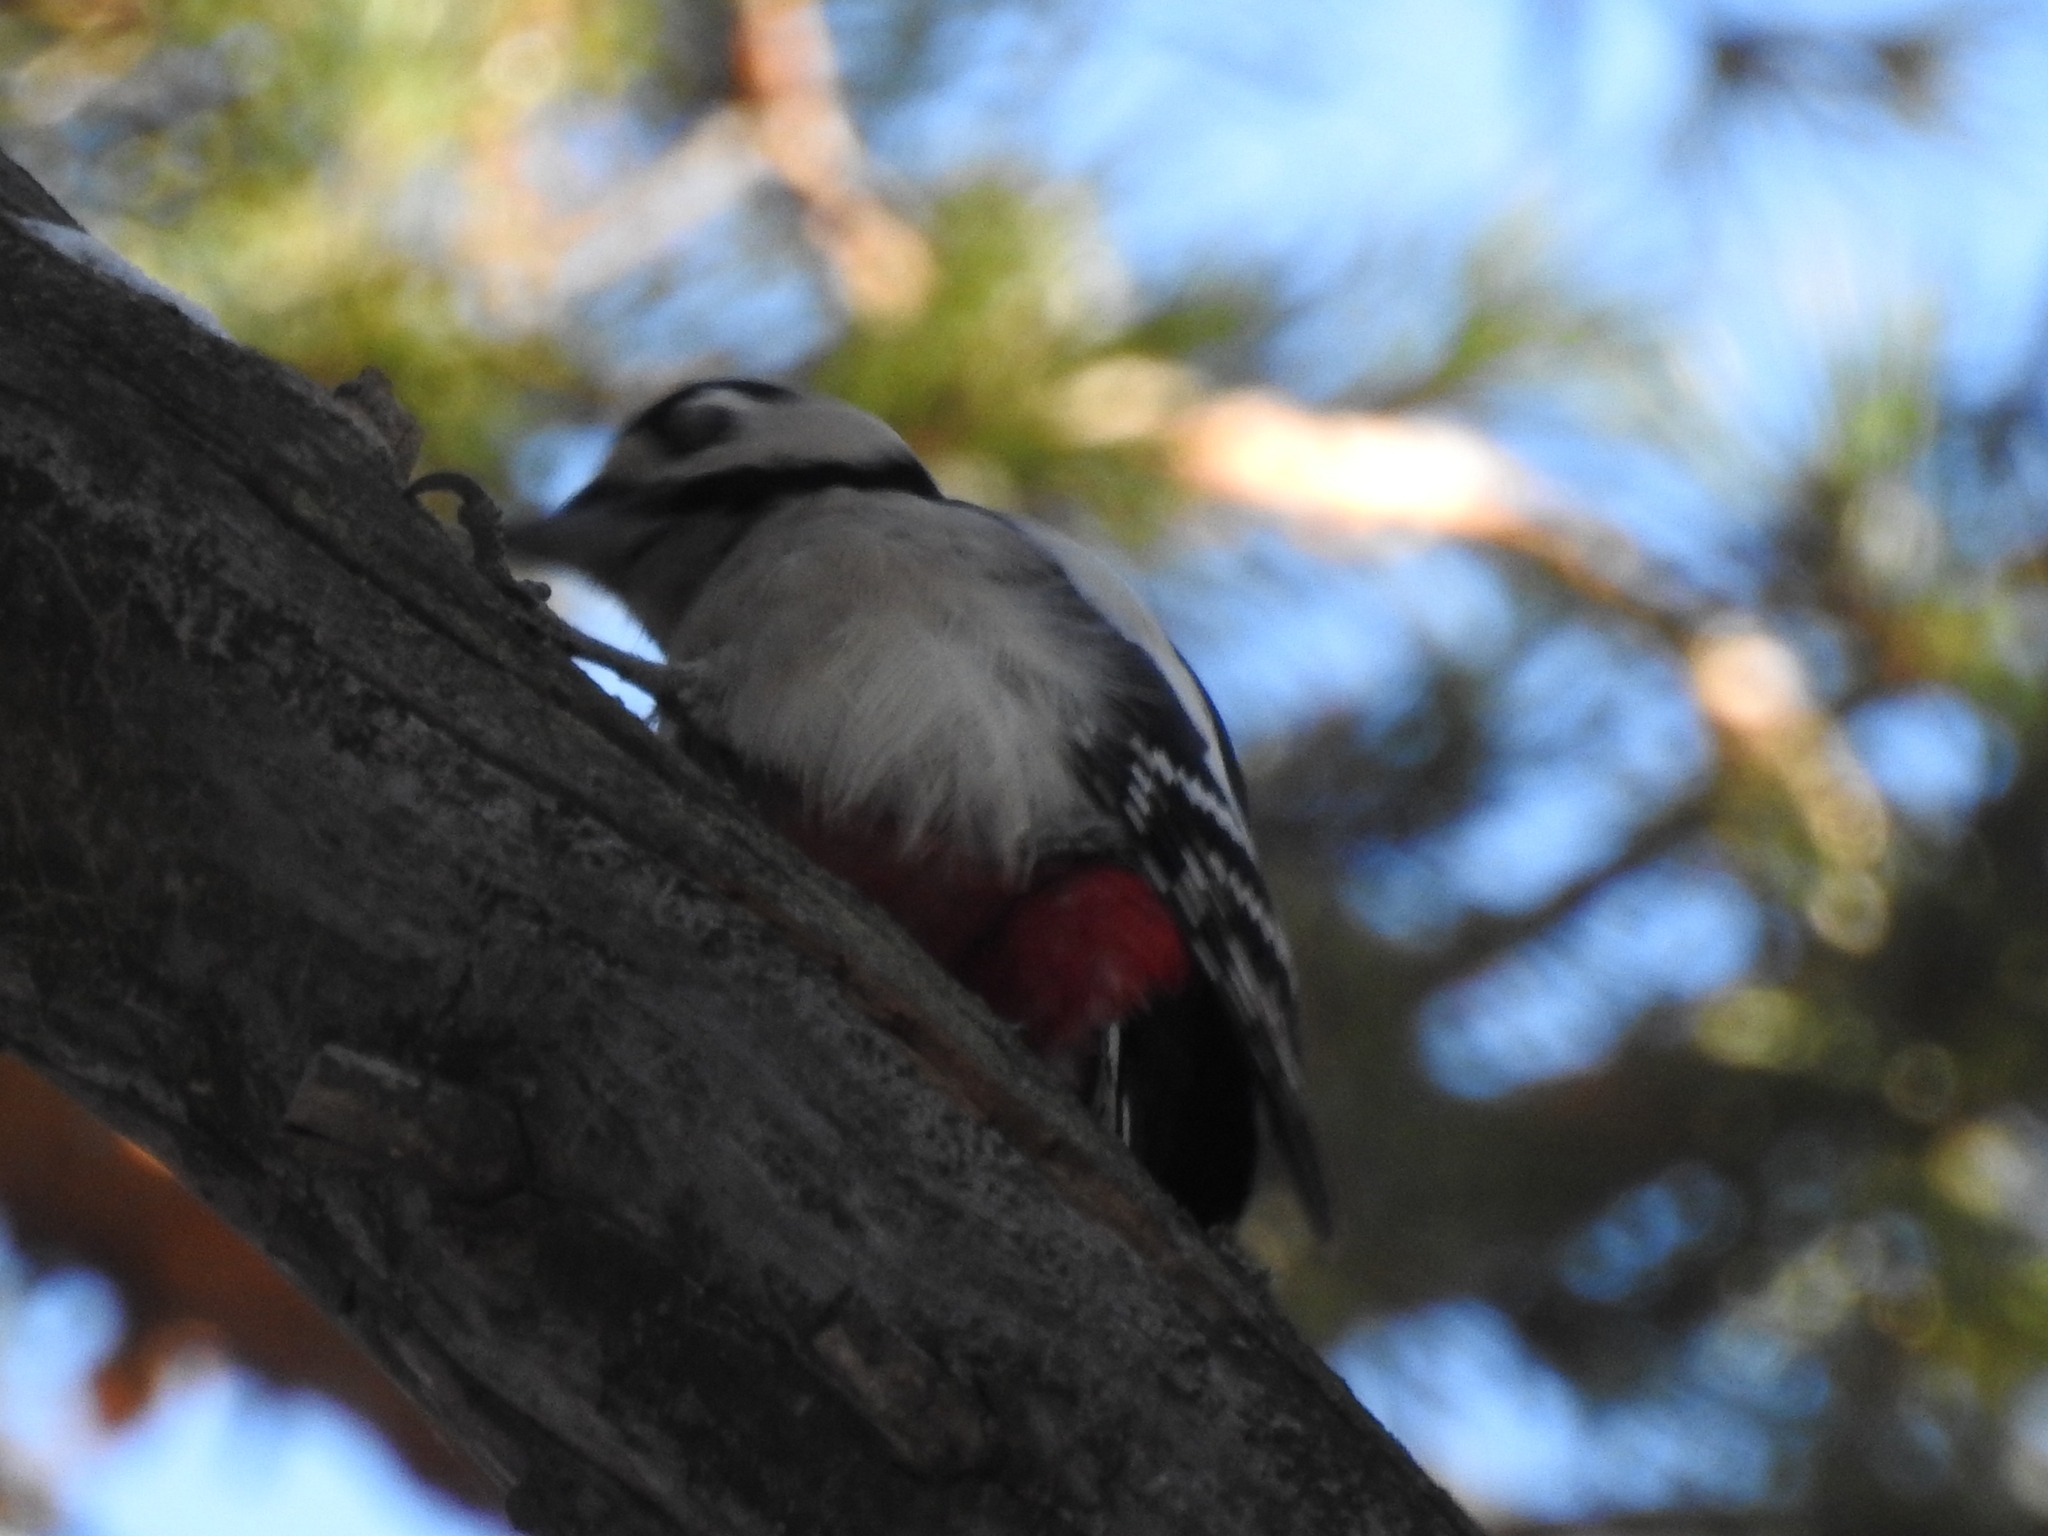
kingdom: Animalia
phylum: Chordata
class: Aves
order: Piciformes
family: Picidae
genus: Dendrocopos
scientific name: Dendrocopos major
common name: Great spotted woodpecker
